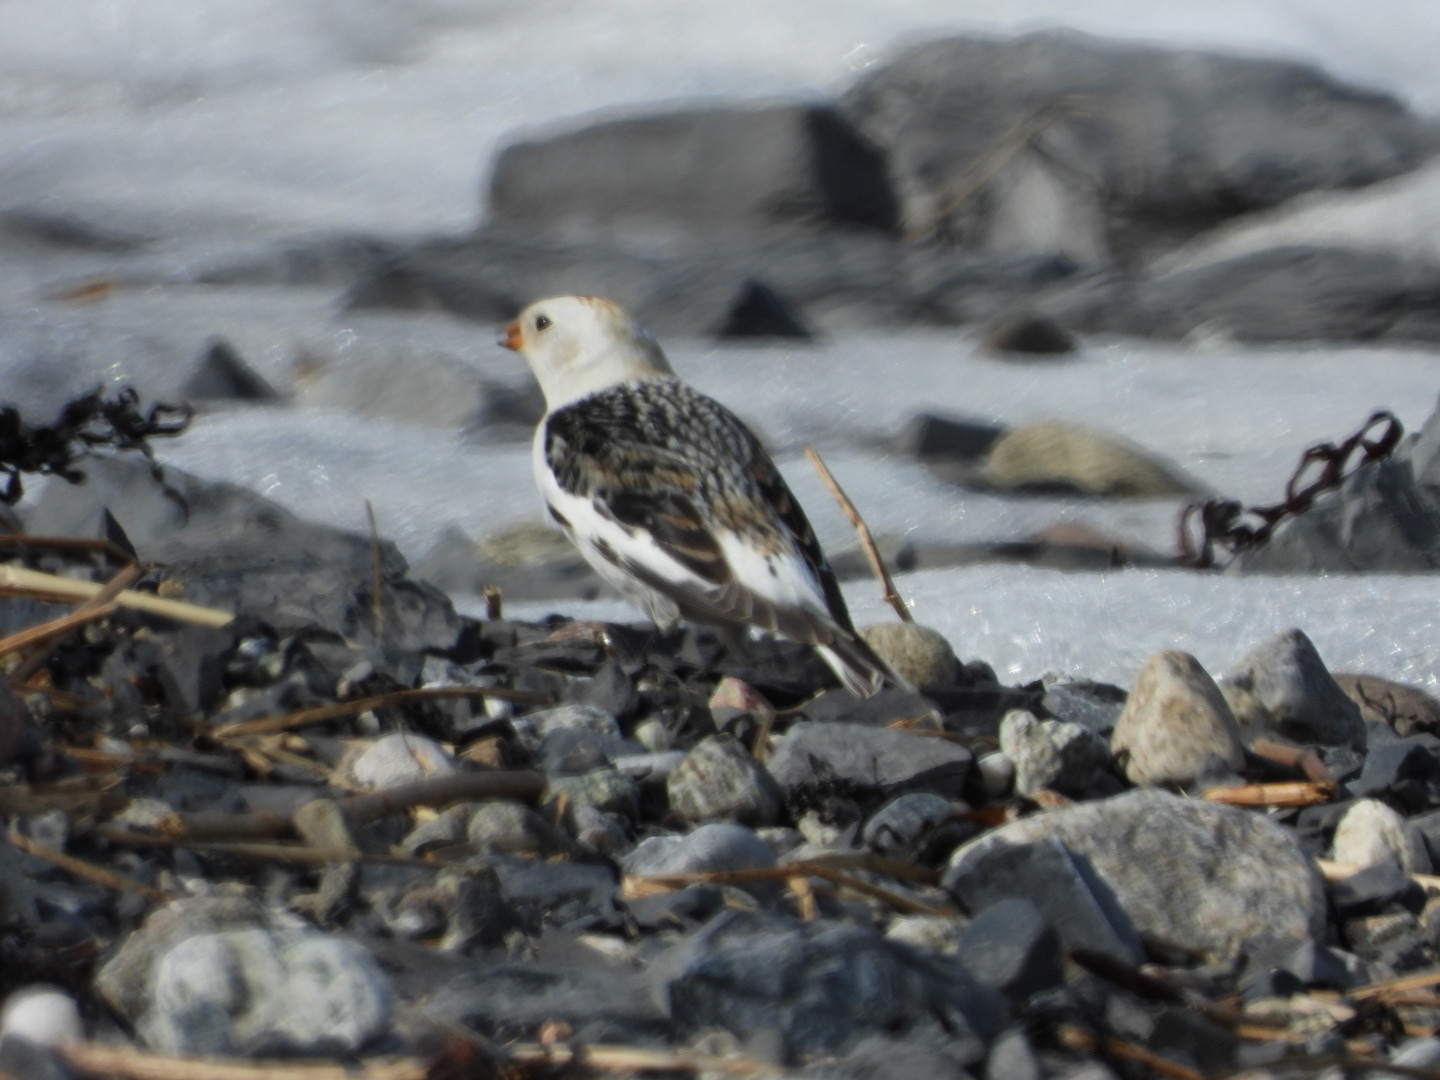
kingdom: Animalia
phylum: Chordata
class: Aves
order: Passeriformes
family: Calcariidae
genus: Plectrophenax
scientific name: Plectrophenax nivalis
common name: Snow bunting
